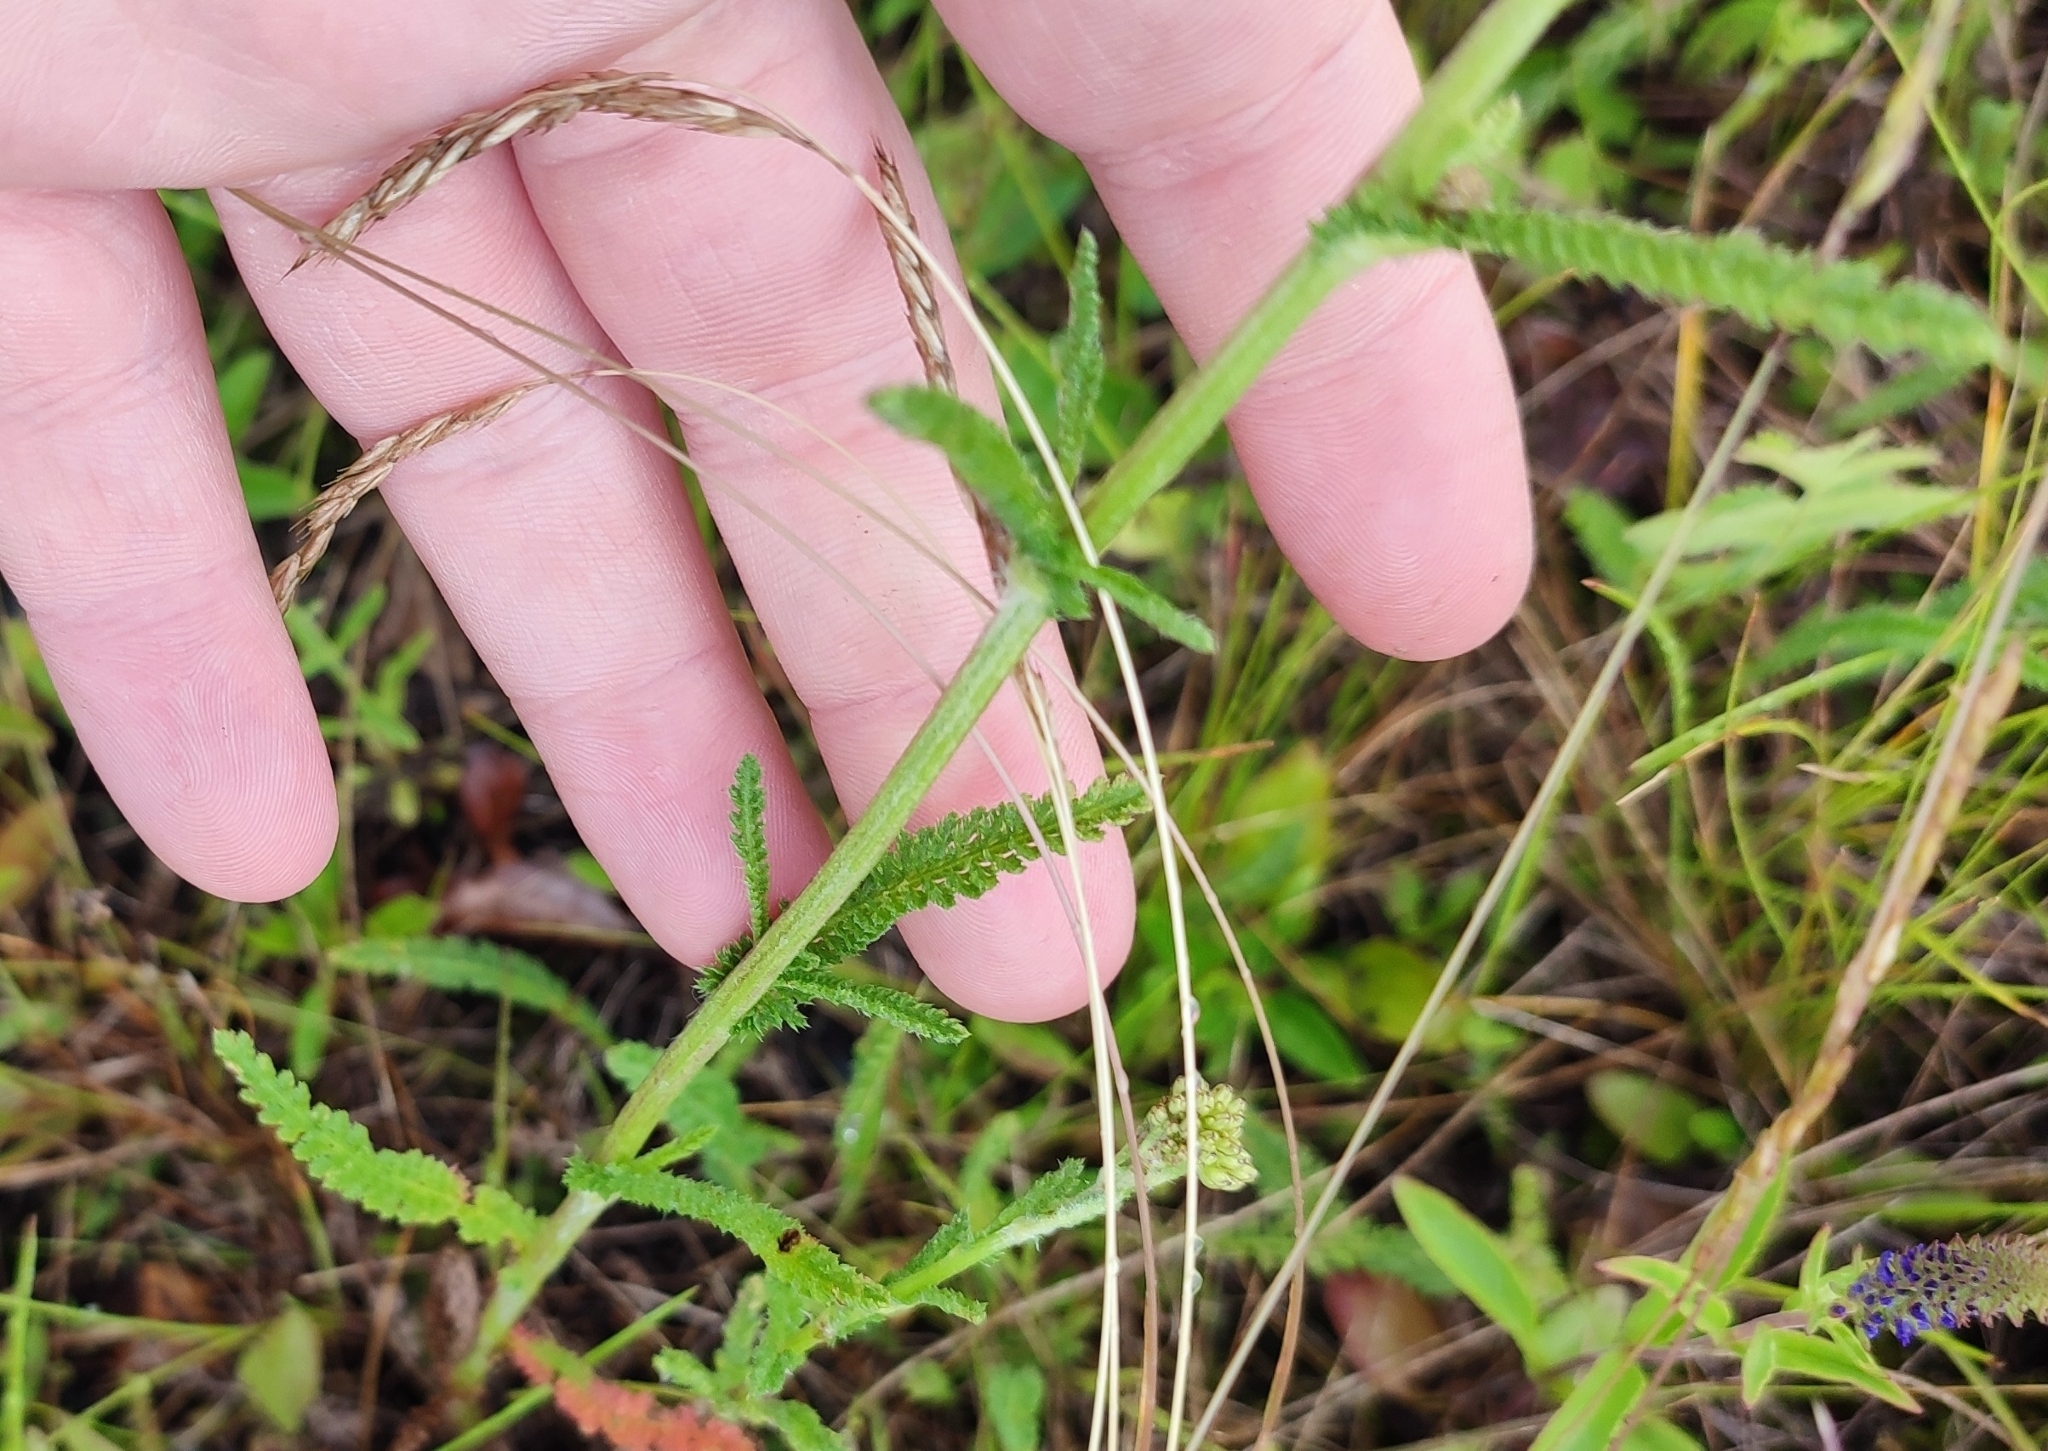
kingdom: Plantae
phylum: Tracheophyta
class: Magnoliopsida
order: Asterales
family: Asteraceae
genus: Achillea
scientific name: Achillea millefolium
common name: Yarrow
